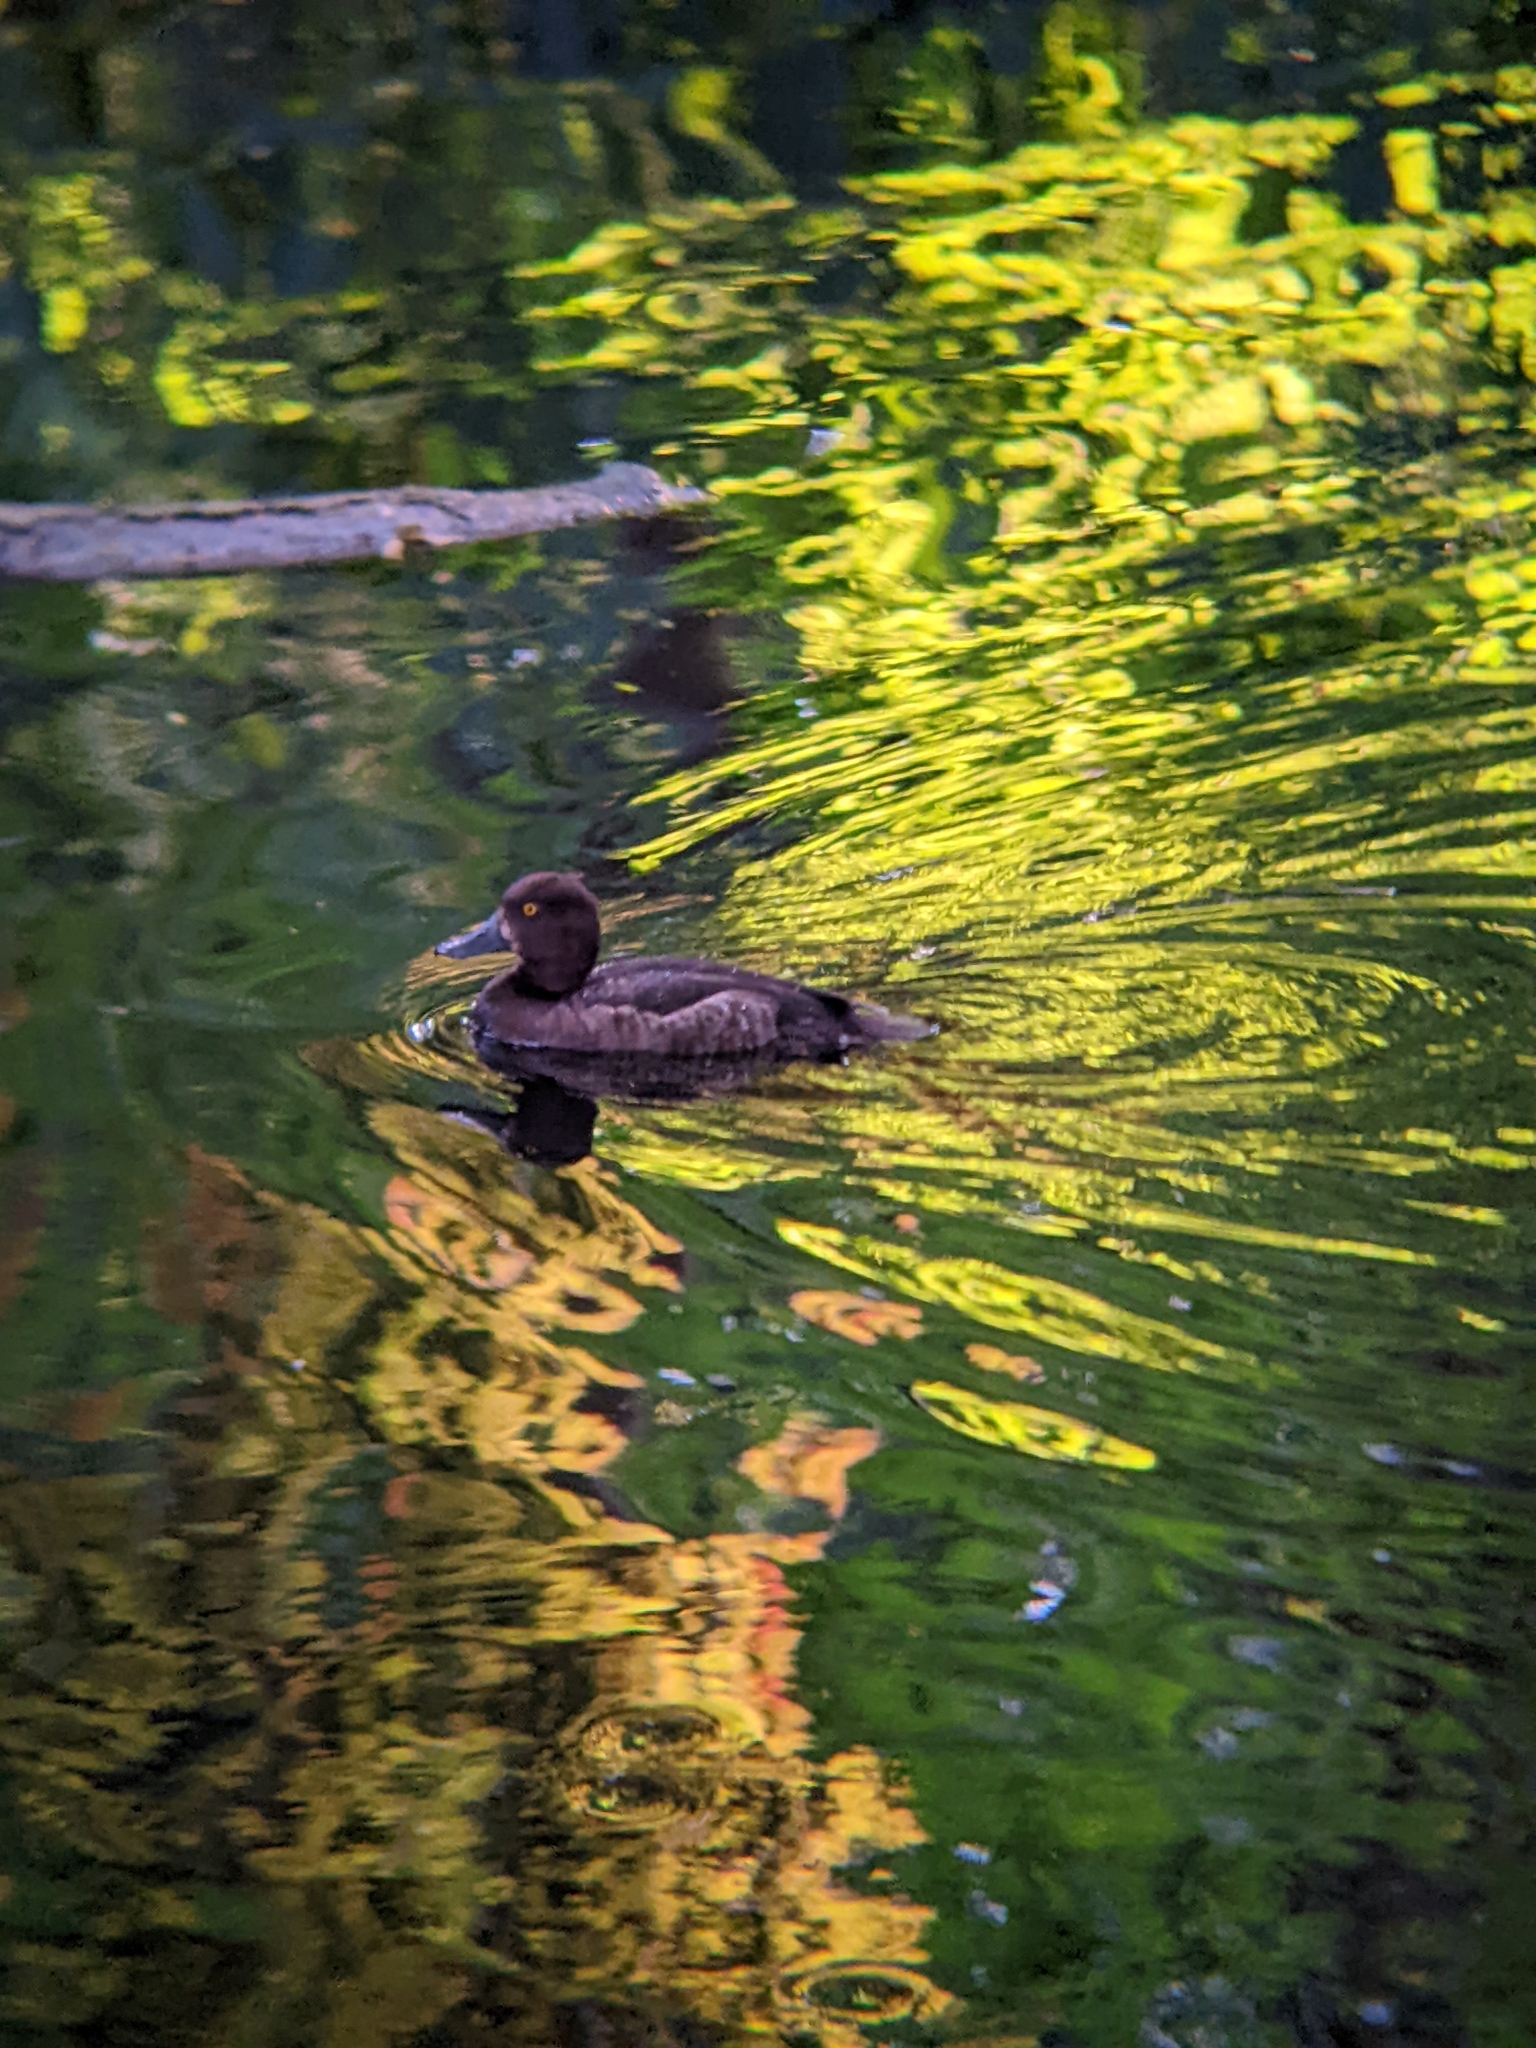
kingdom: Animalia
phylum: Chordata
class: Aves
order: Anseriformes
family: Anatidae
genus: Aythya
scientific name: Aythya fuligula
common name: Tufted duck
